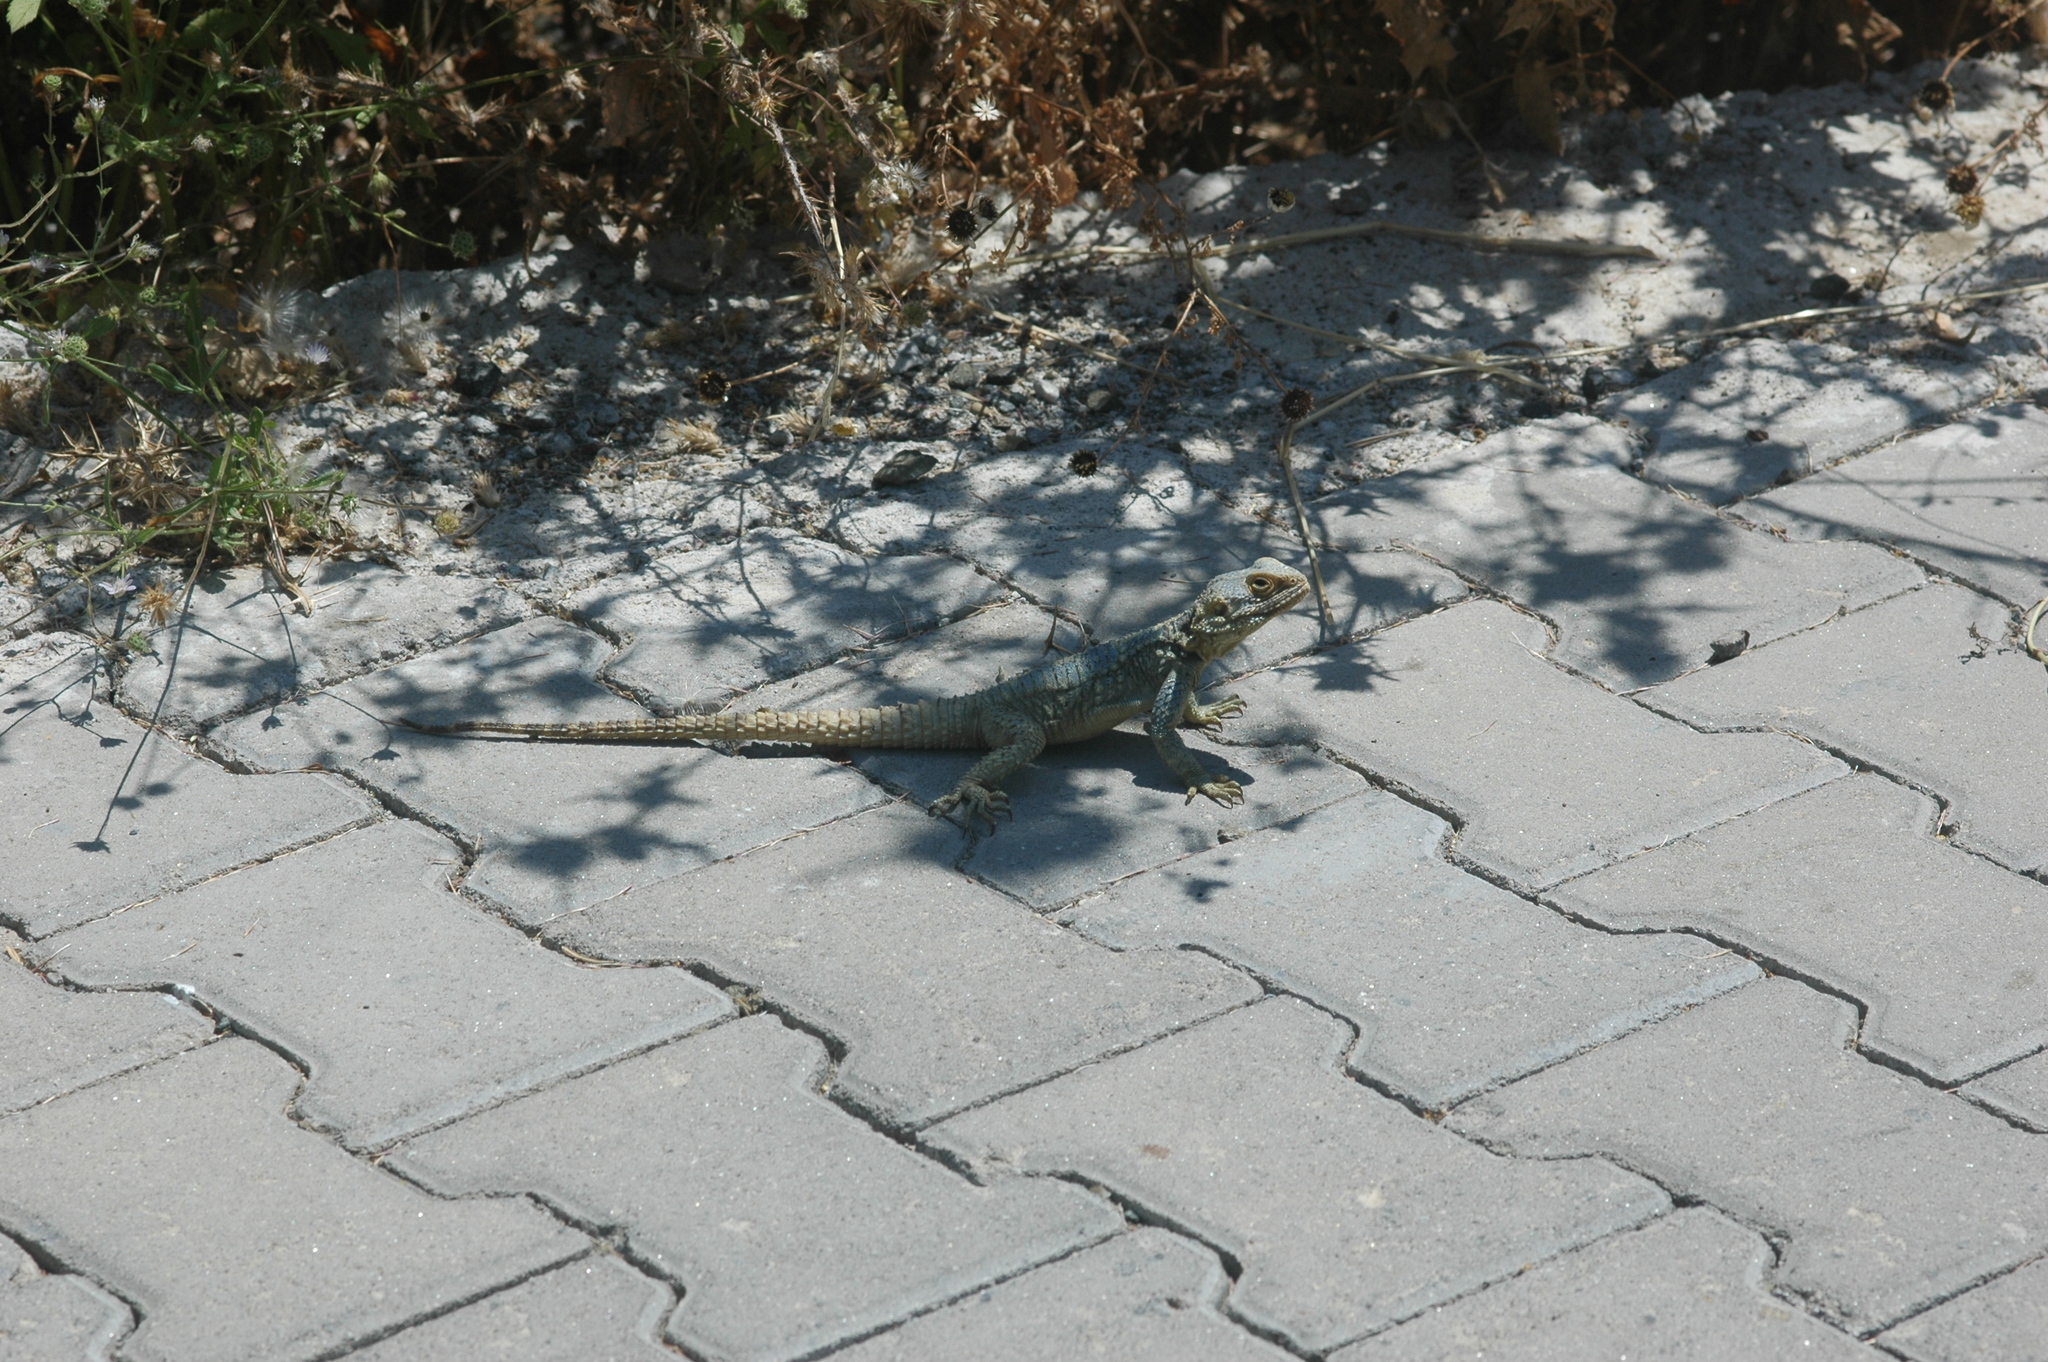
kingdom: Animalia
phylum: Chordata
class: Squamata
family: Agamidae
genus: Stellagama
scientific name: Stellagama stellio
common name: Starred agama
